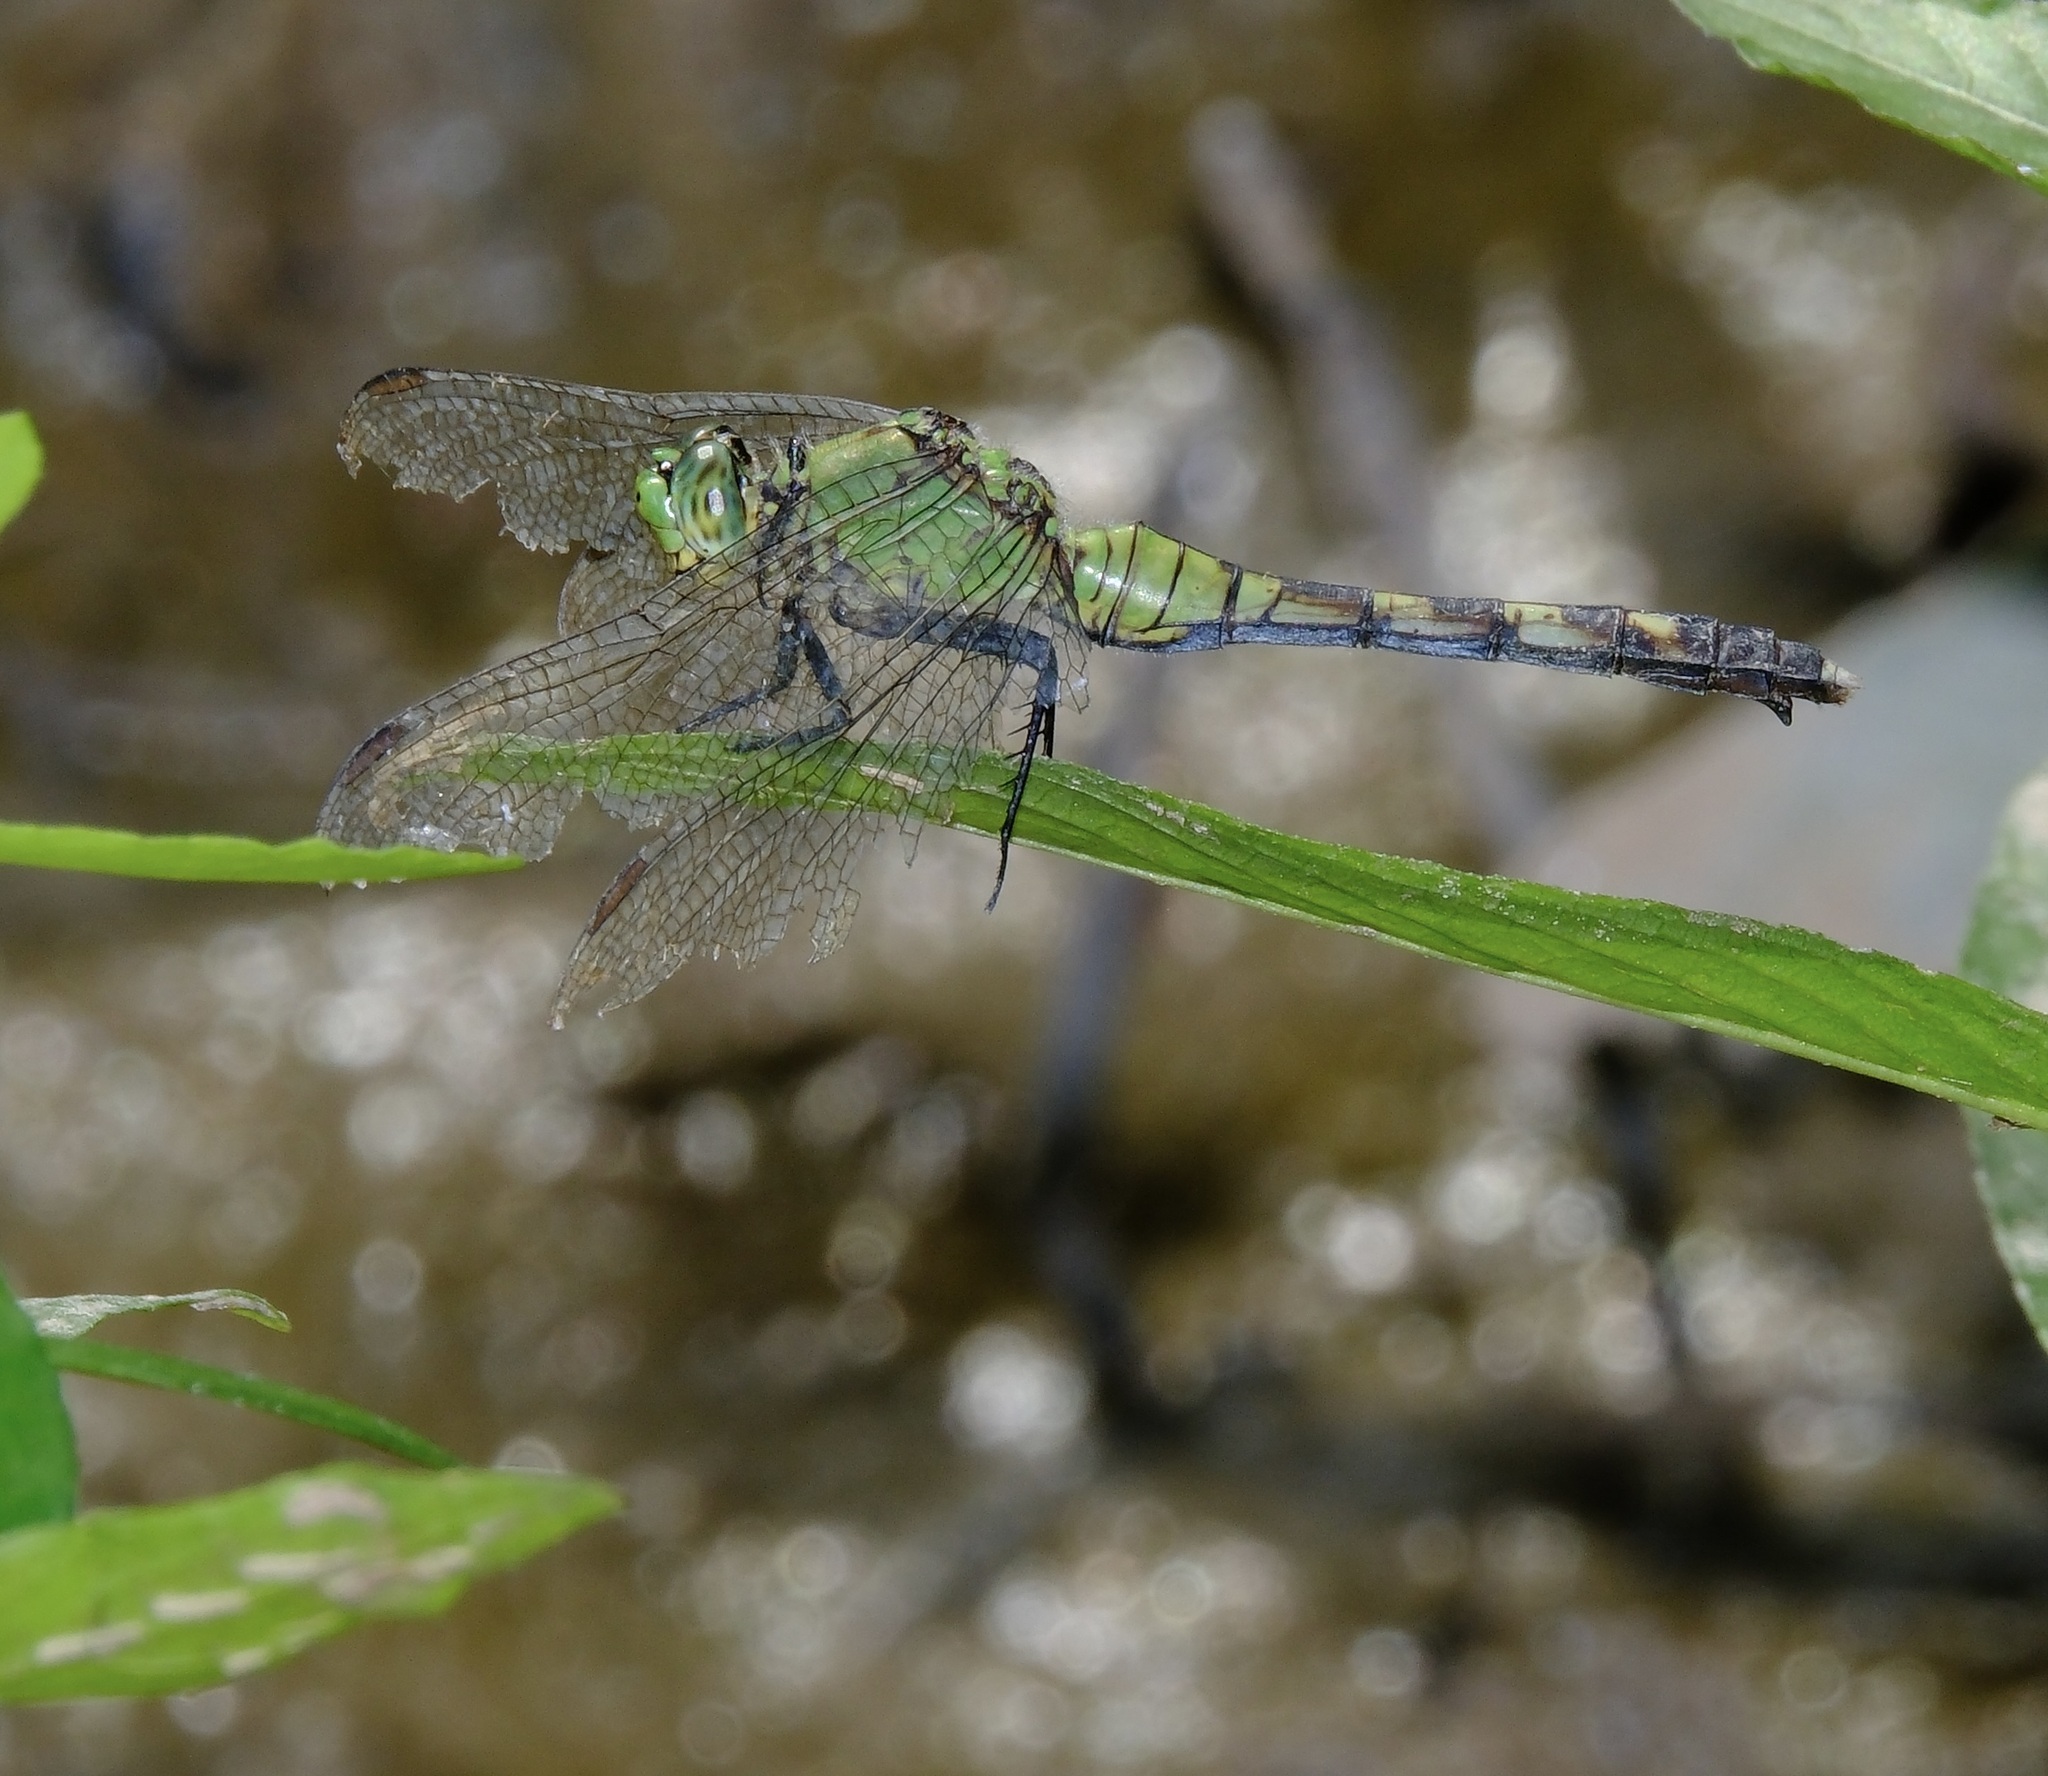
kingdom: Animalia
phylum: Arthropoda
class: Insecta
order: Odonata
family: Libellulidae
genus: Erythemis
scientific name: Erythemis simplicicollis
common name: Eastern pondhawk
